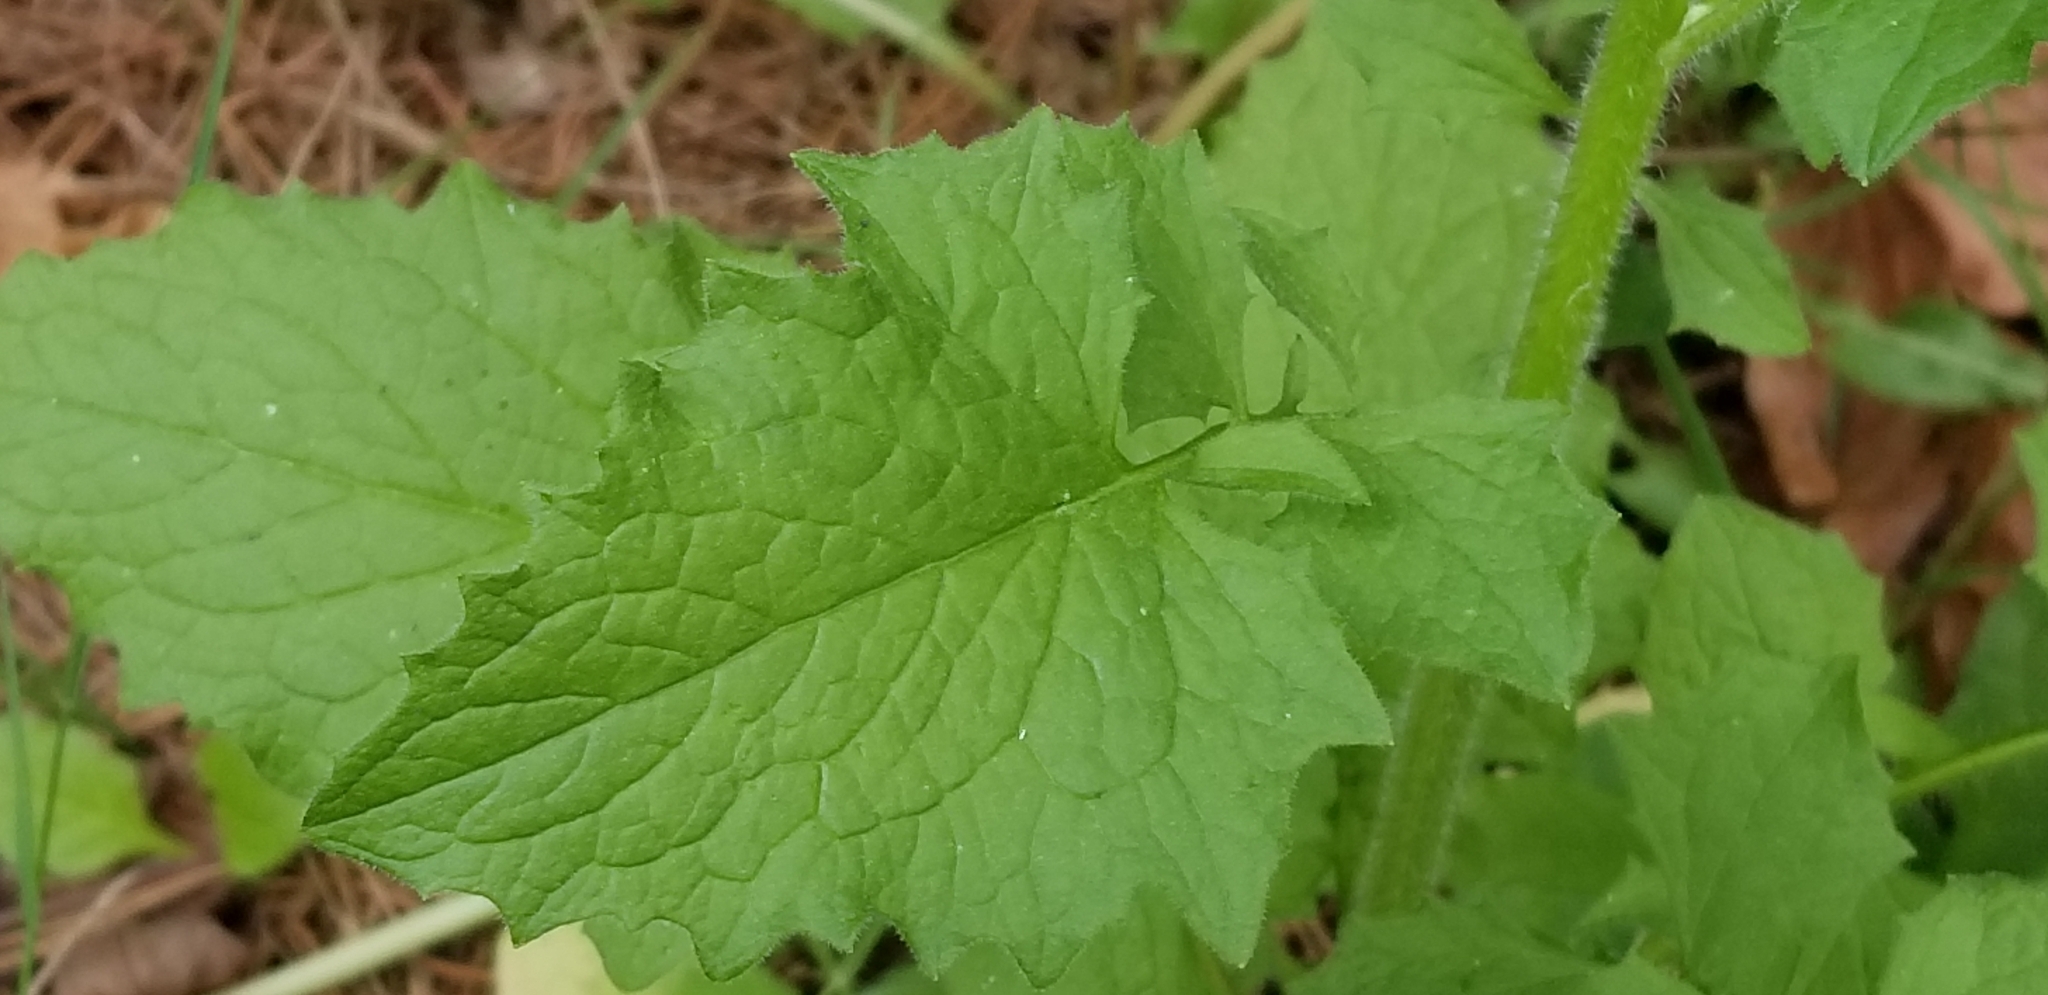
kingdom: Plantae
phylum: Tracheophyta
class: Magnoliopsida
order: Asterales
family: Asteraceae
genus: Lapsana
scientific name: Lapsana communis
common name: Nipplewort
